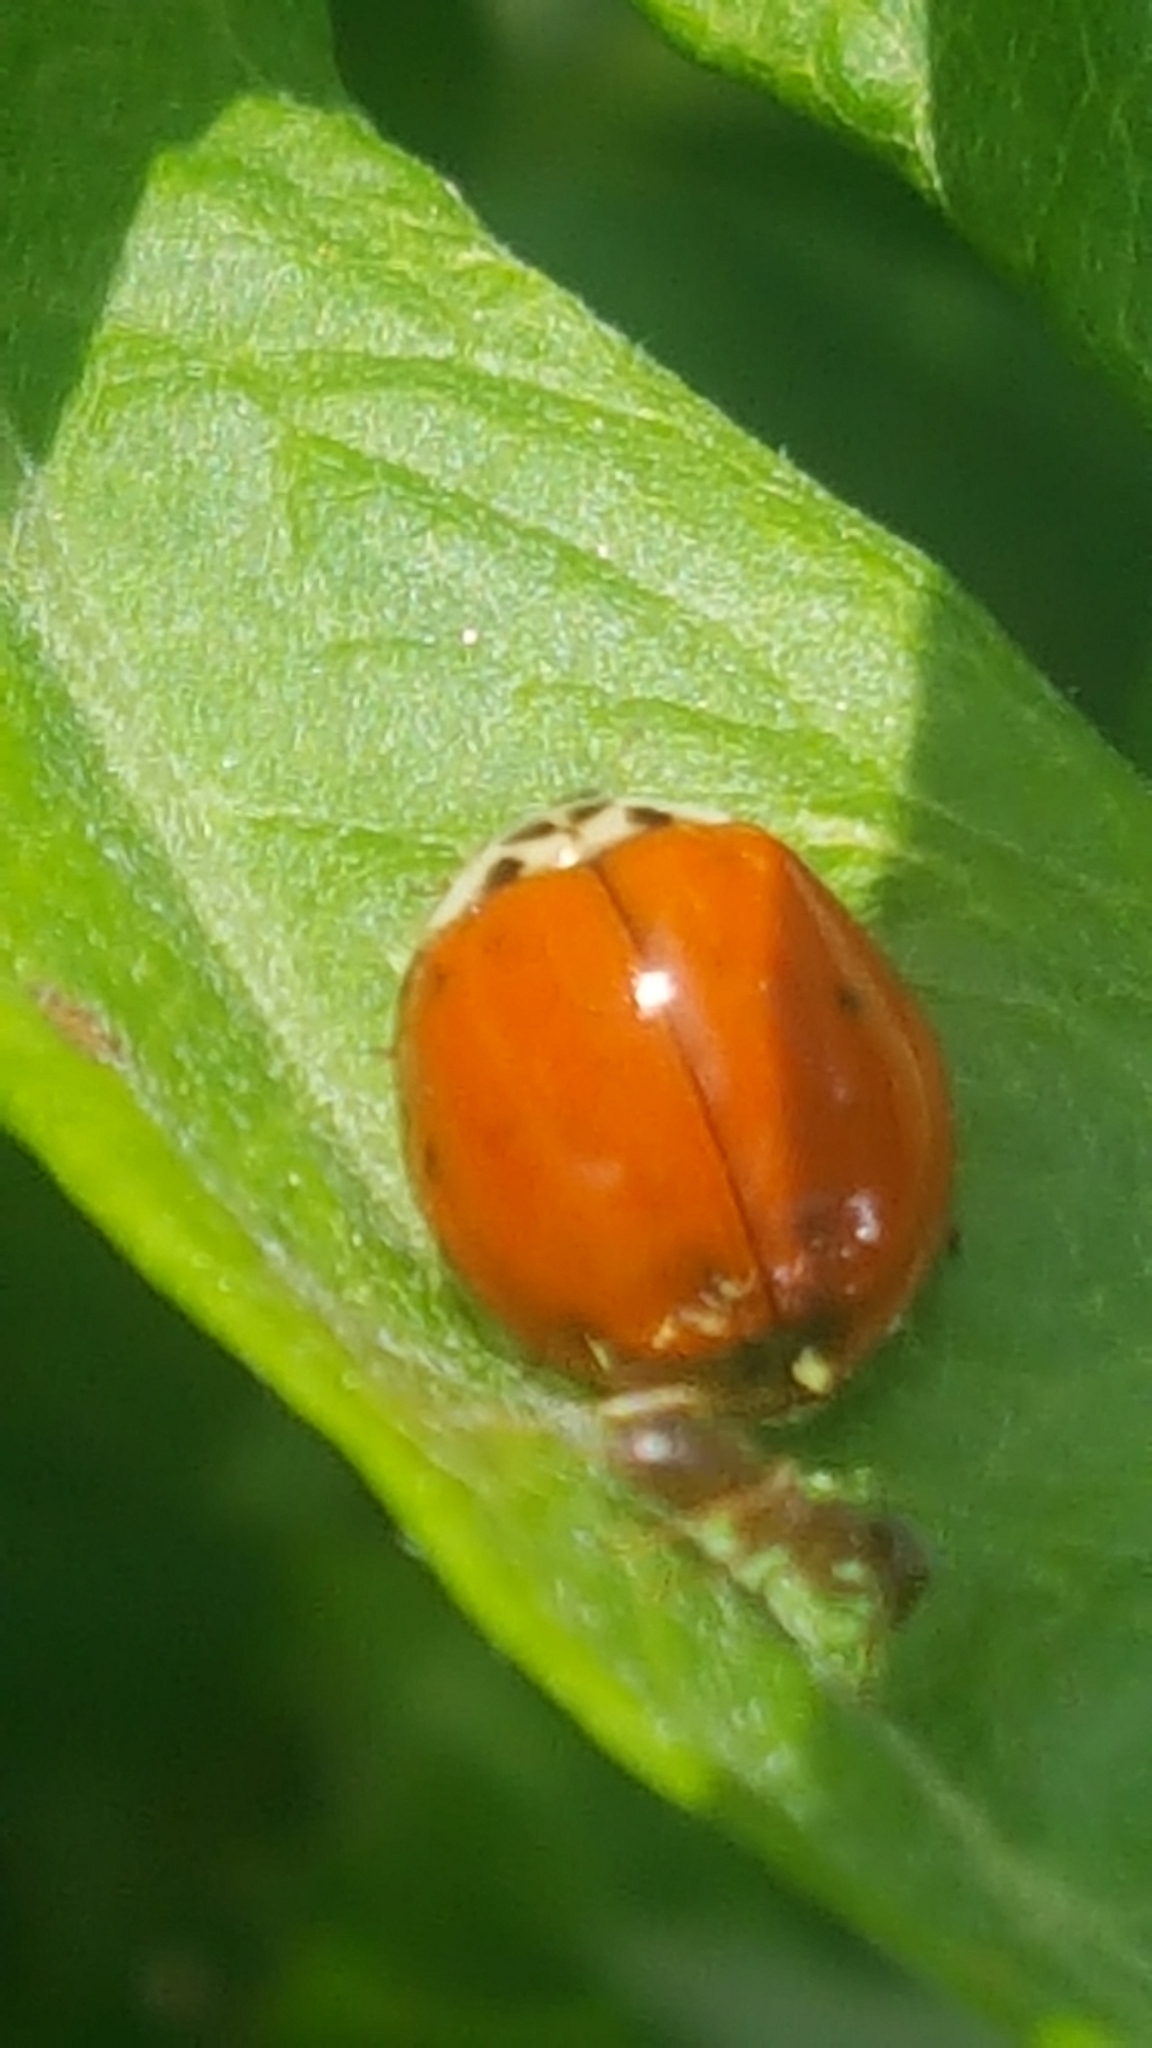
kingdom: Animalia
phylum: Arthropoda
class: Insecta
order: Coleoptera
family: Coccinellidae
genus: Harmonia
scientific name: Harmonia axyridis
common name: Harlequin ladybird
